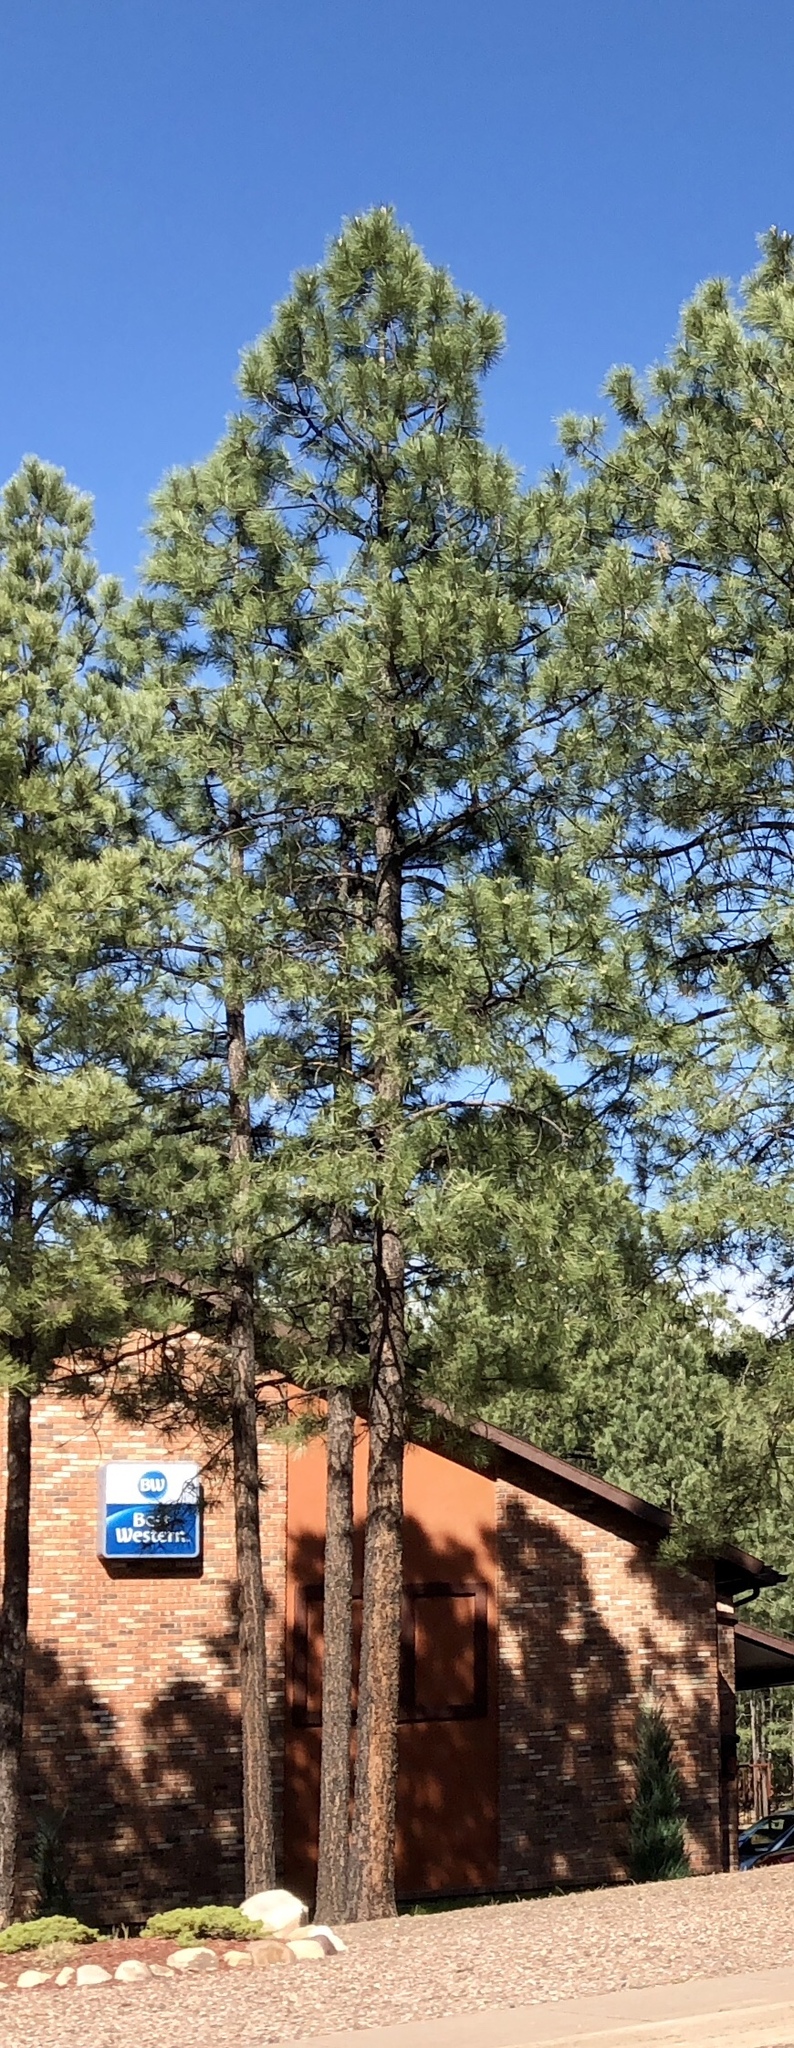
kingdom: Plantae
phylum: Tracheophyta
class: Pinopsida
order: Pinales
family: Pinaceae
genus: Pinus
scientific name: Pinus ponderosa
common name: Western yellow-pine
